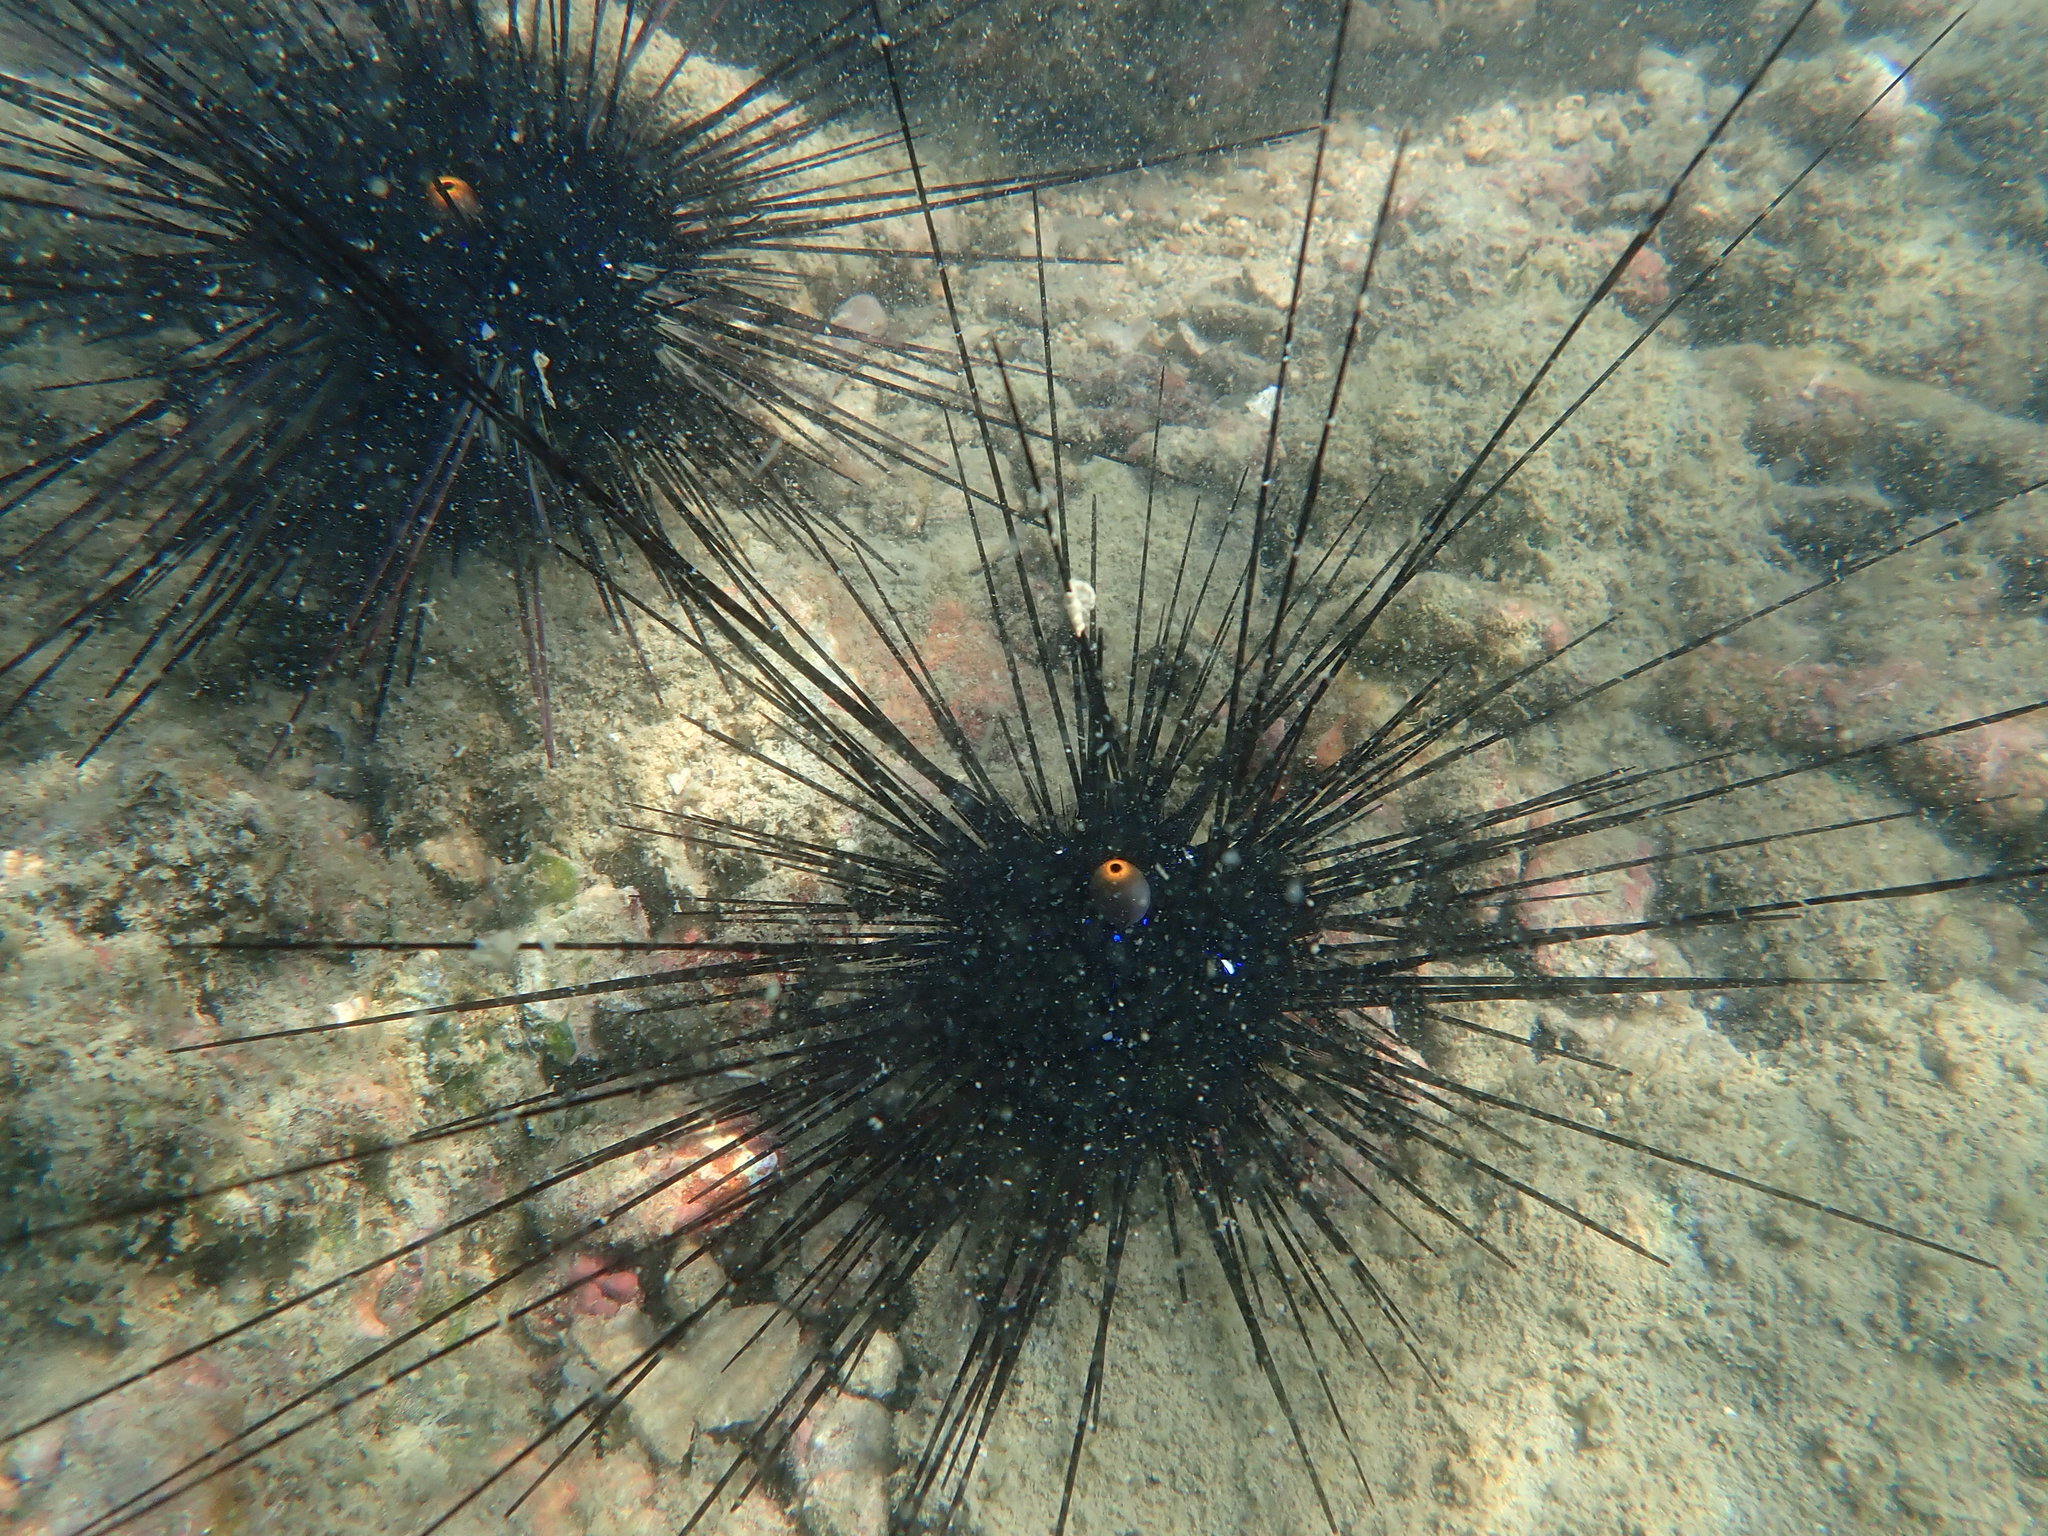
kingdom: Animalia
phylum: Echinodermata
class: Echinoidea
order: Diadematoida
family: Diadematidae
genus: Diadema
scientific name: Diadema setosum
